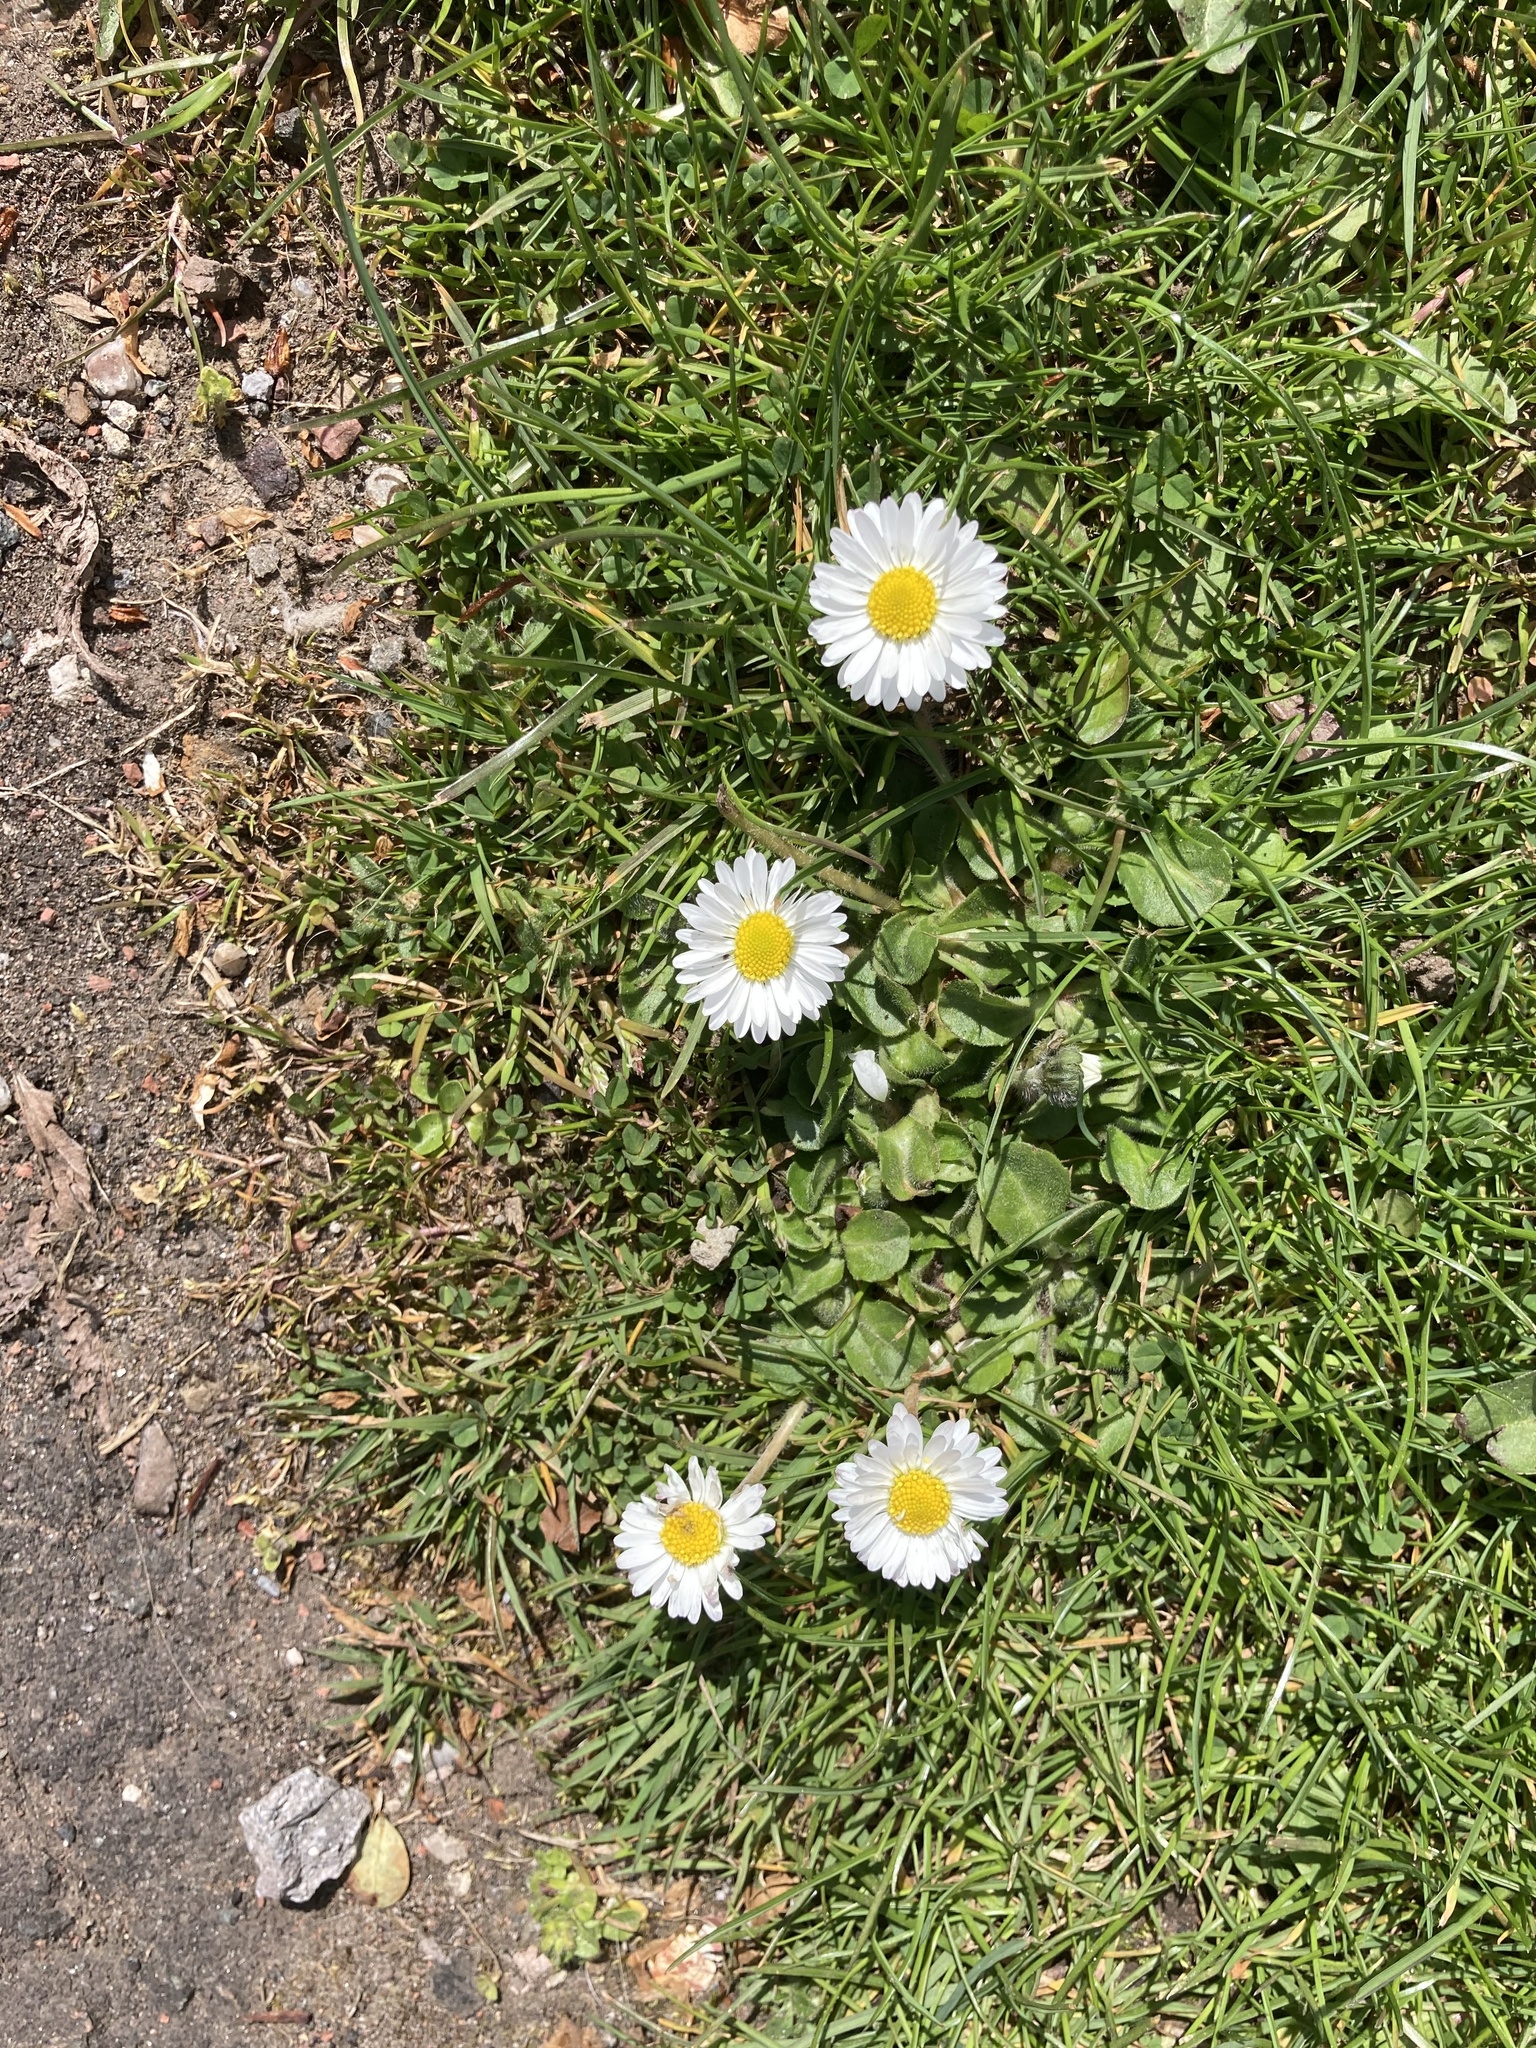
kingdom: Plantae
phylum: Tracheophyta
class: Magnoliopsida
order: Asterales
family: Asteraceae
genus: Bellis
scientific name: Bellis perennis
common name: Lawndaisy
